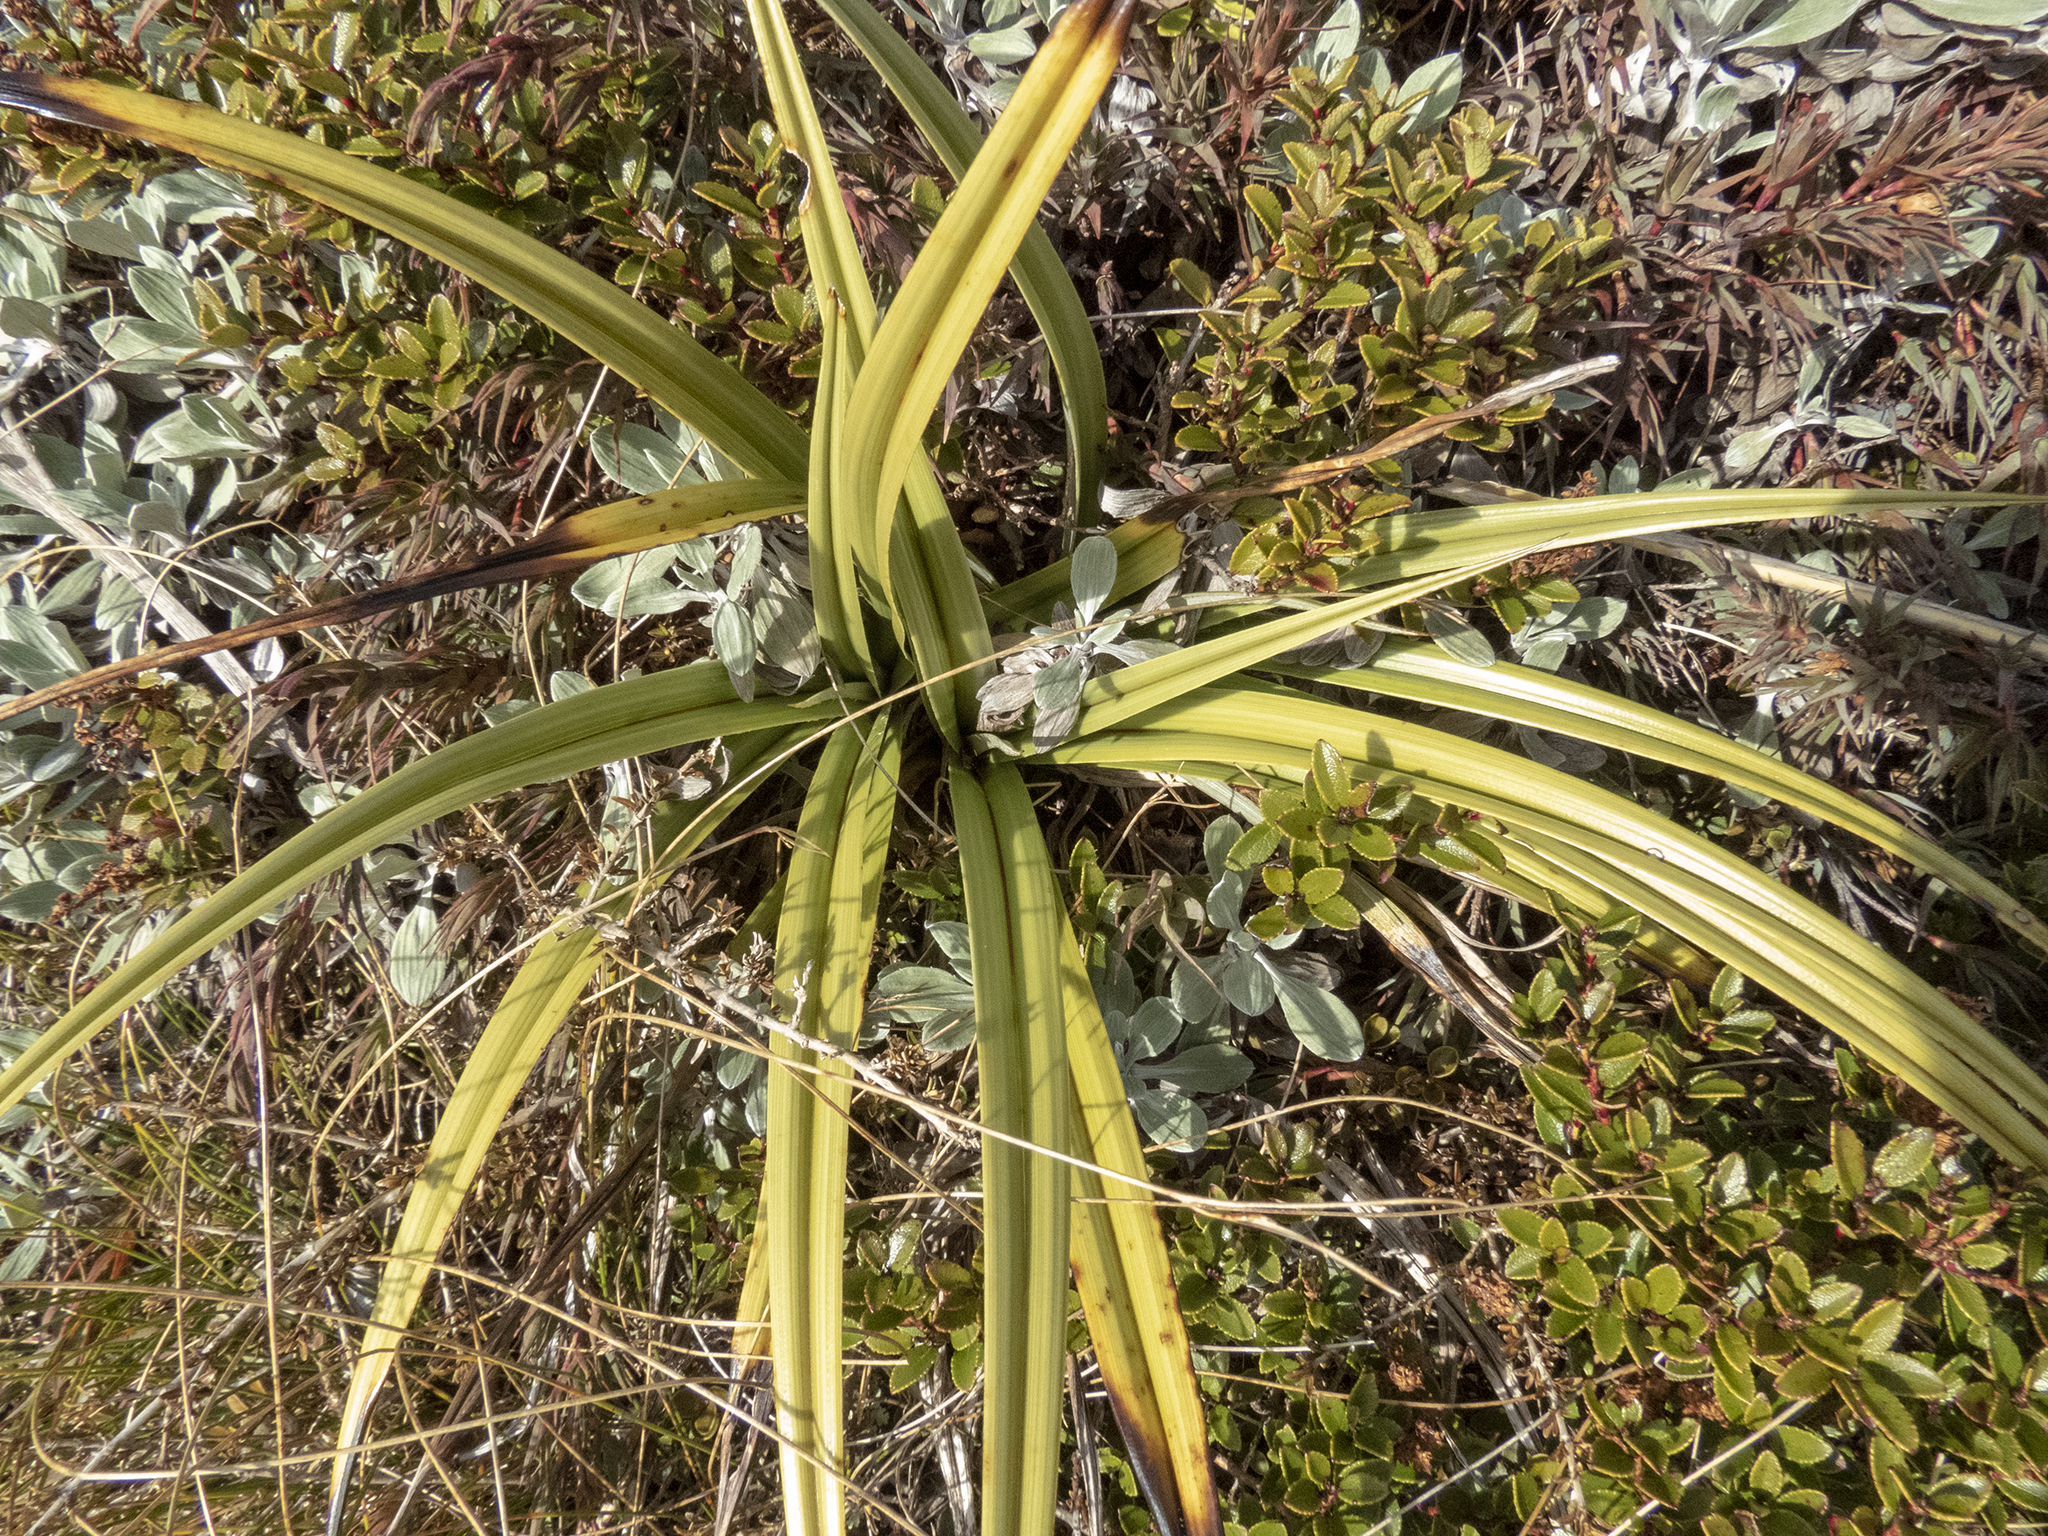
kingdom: Plantae
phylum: Tracheophyta
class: Liliopsida
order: Asparagales
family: Asteliaceae
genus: Astelia
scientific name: Astelia petriei
